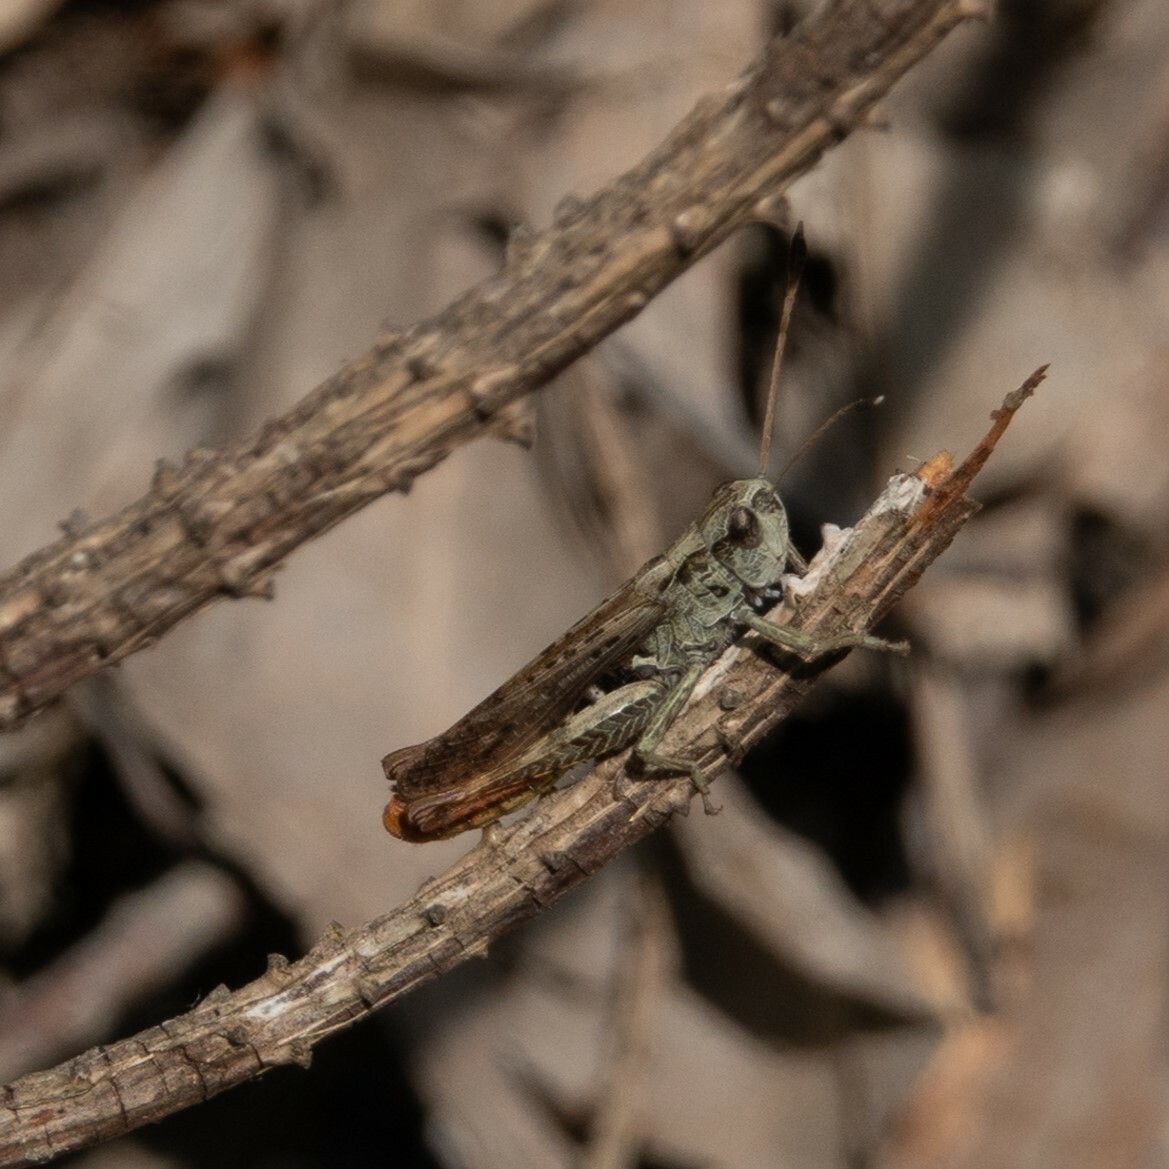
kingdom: Animalia
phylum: Arthropoda
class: Insecta
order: Orthoptera
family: Acrididae
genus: Gomphocerippus
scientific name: Gomphocerippus rufus
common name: Rufous grasshopper
